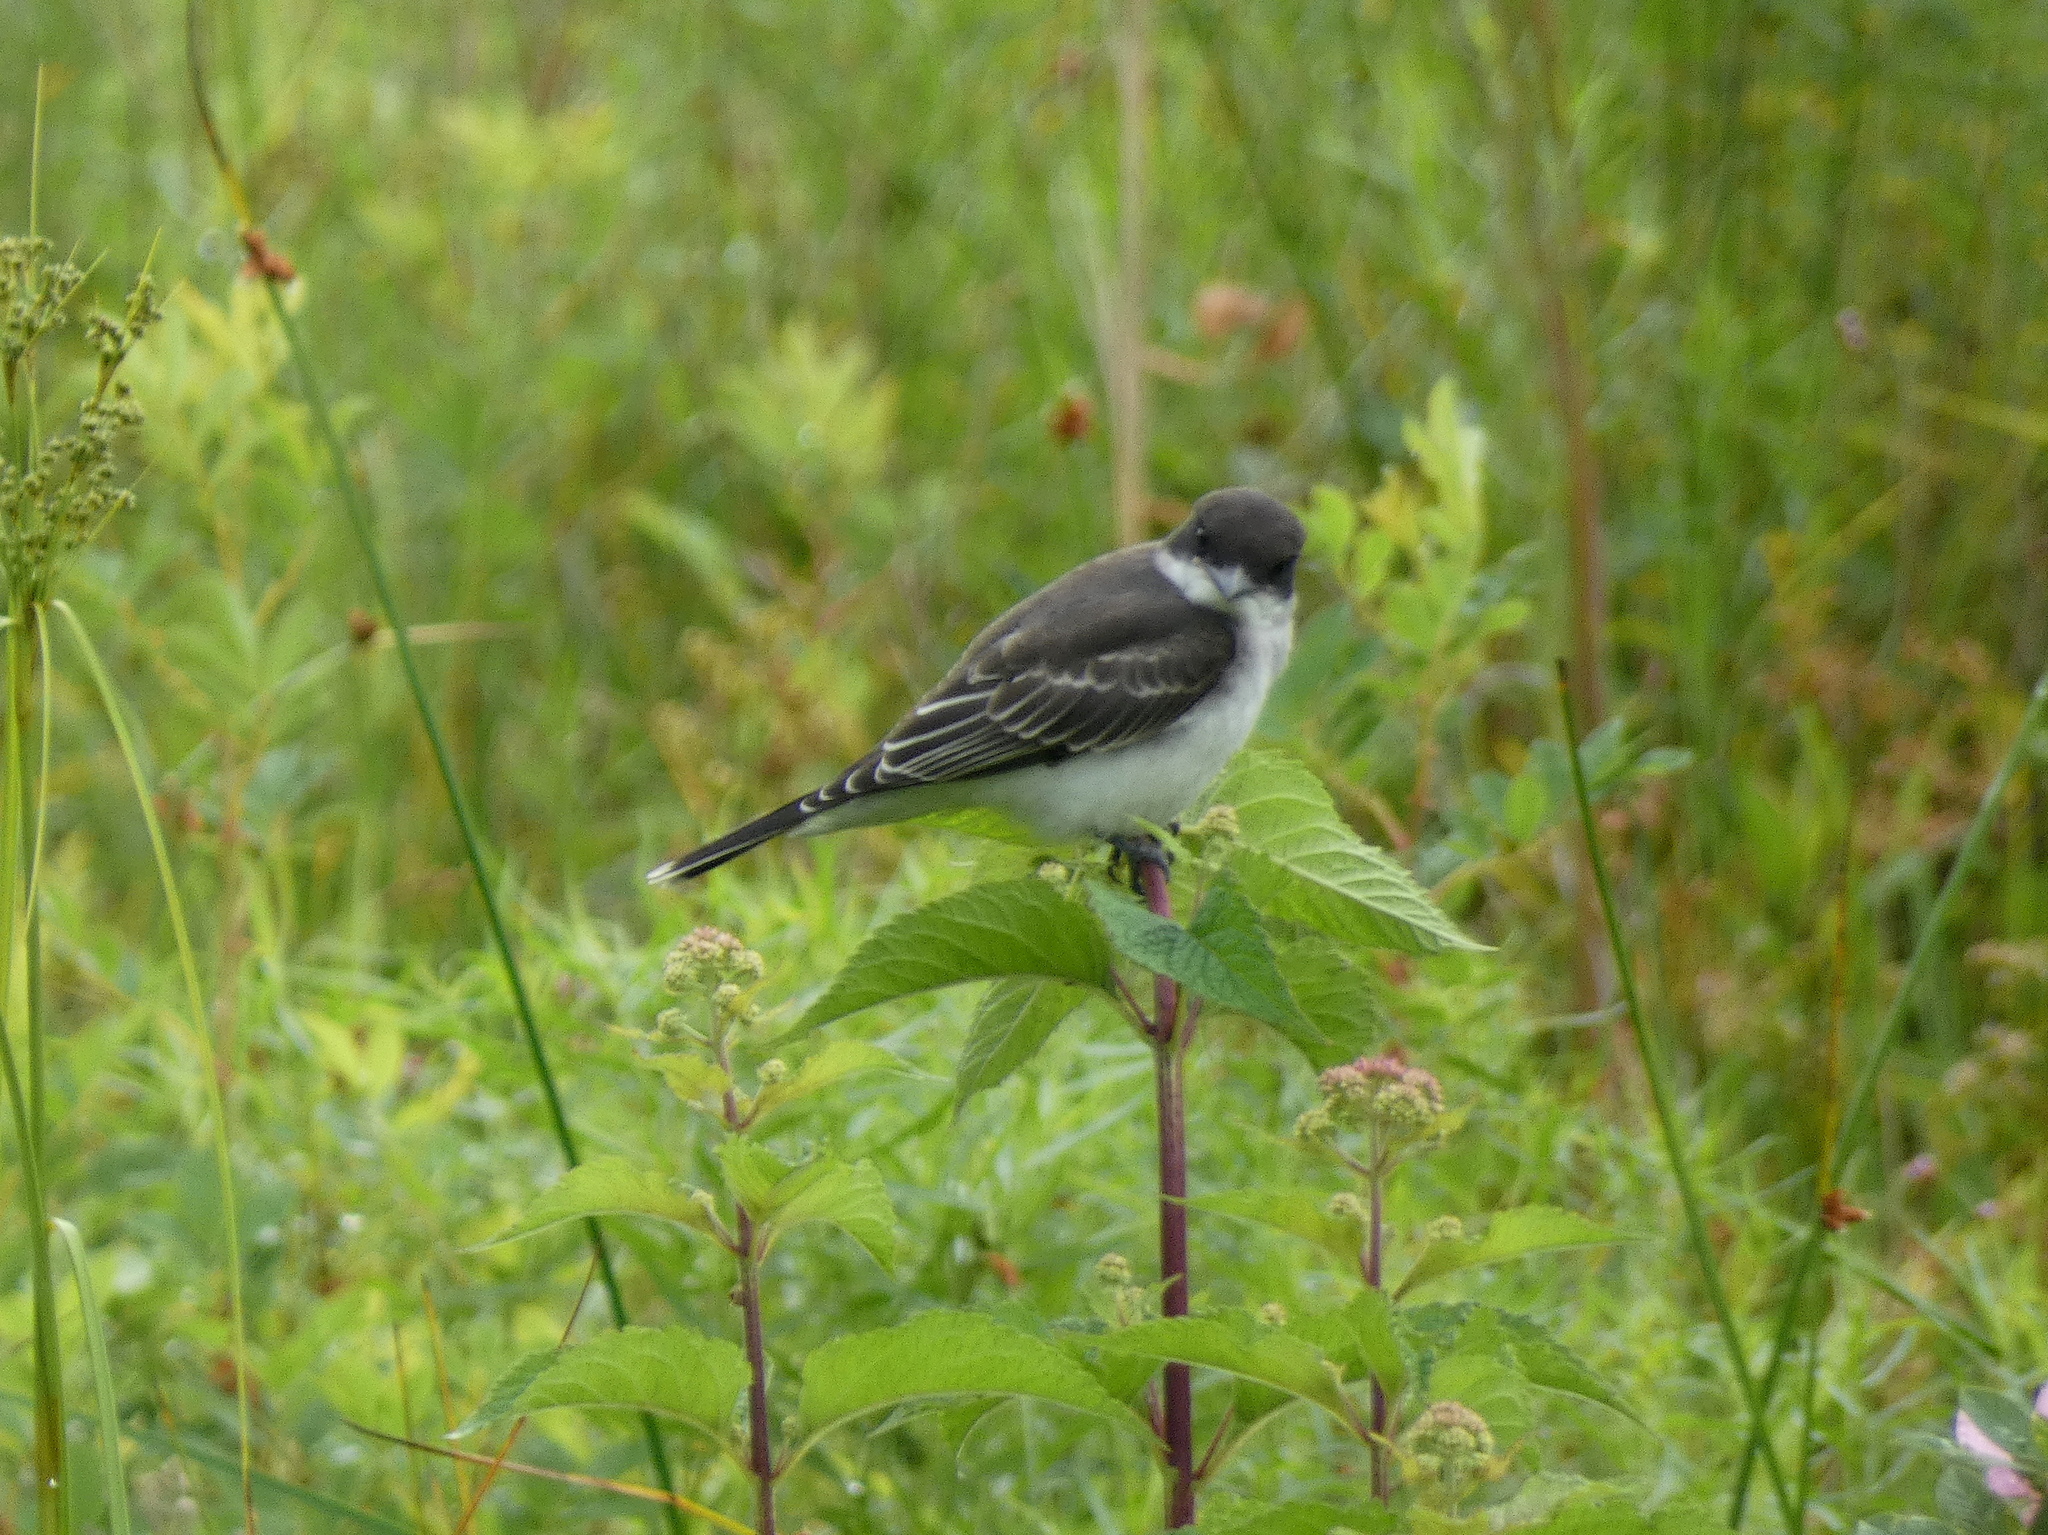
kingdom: Animalia
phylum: Chordata
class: Aves
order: Passeriformes
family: Tyrannidae
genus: Tyrannus
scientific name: Tyrannus tyrannus
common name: Eastern kingbird
